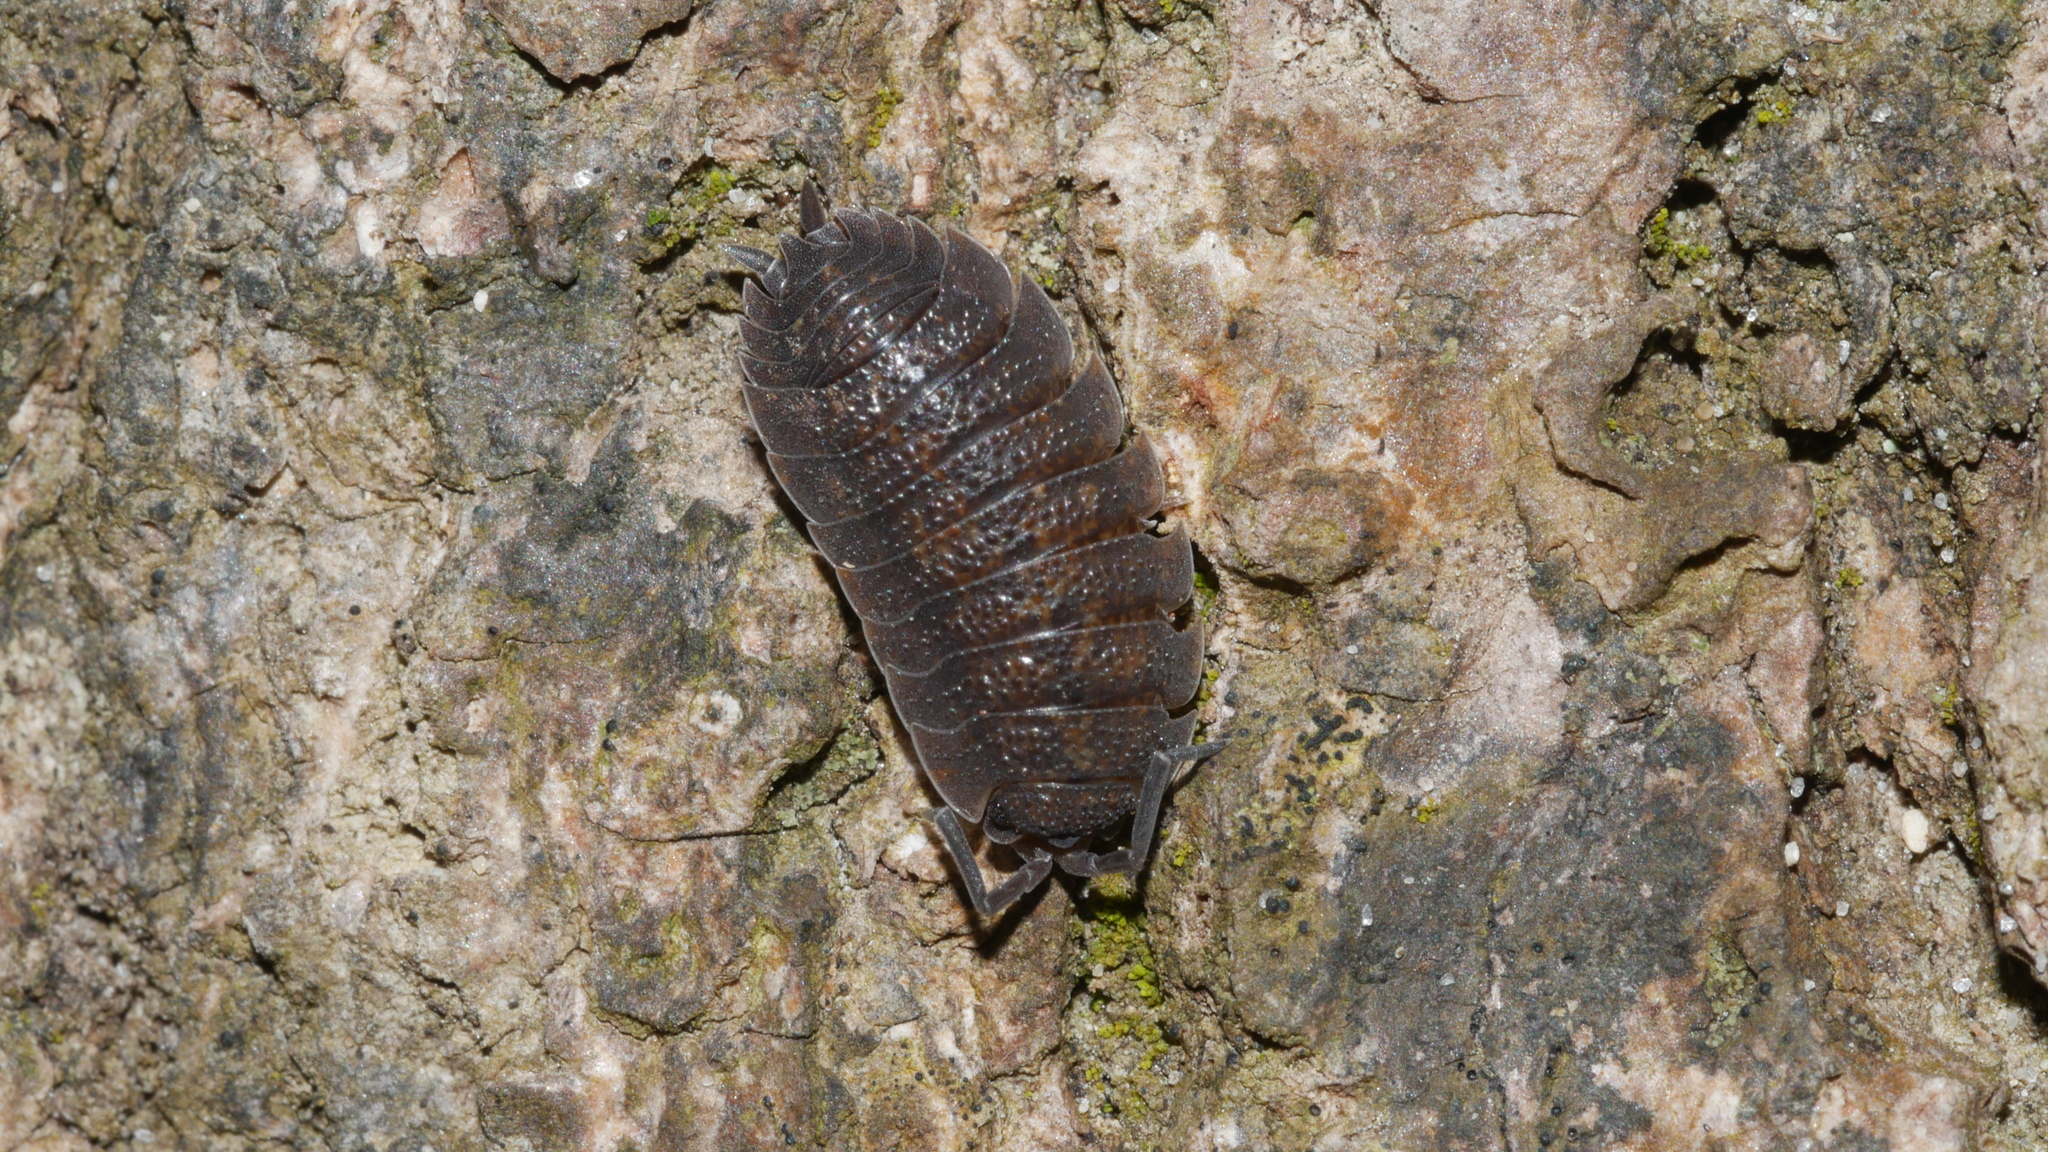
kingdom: Animalia
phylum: Arthropoda
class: Malacostraca
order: Isopoda
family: Porcellionidae
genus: Porcellio
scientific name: Porcellio scaber
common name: Common rough woodlouse
